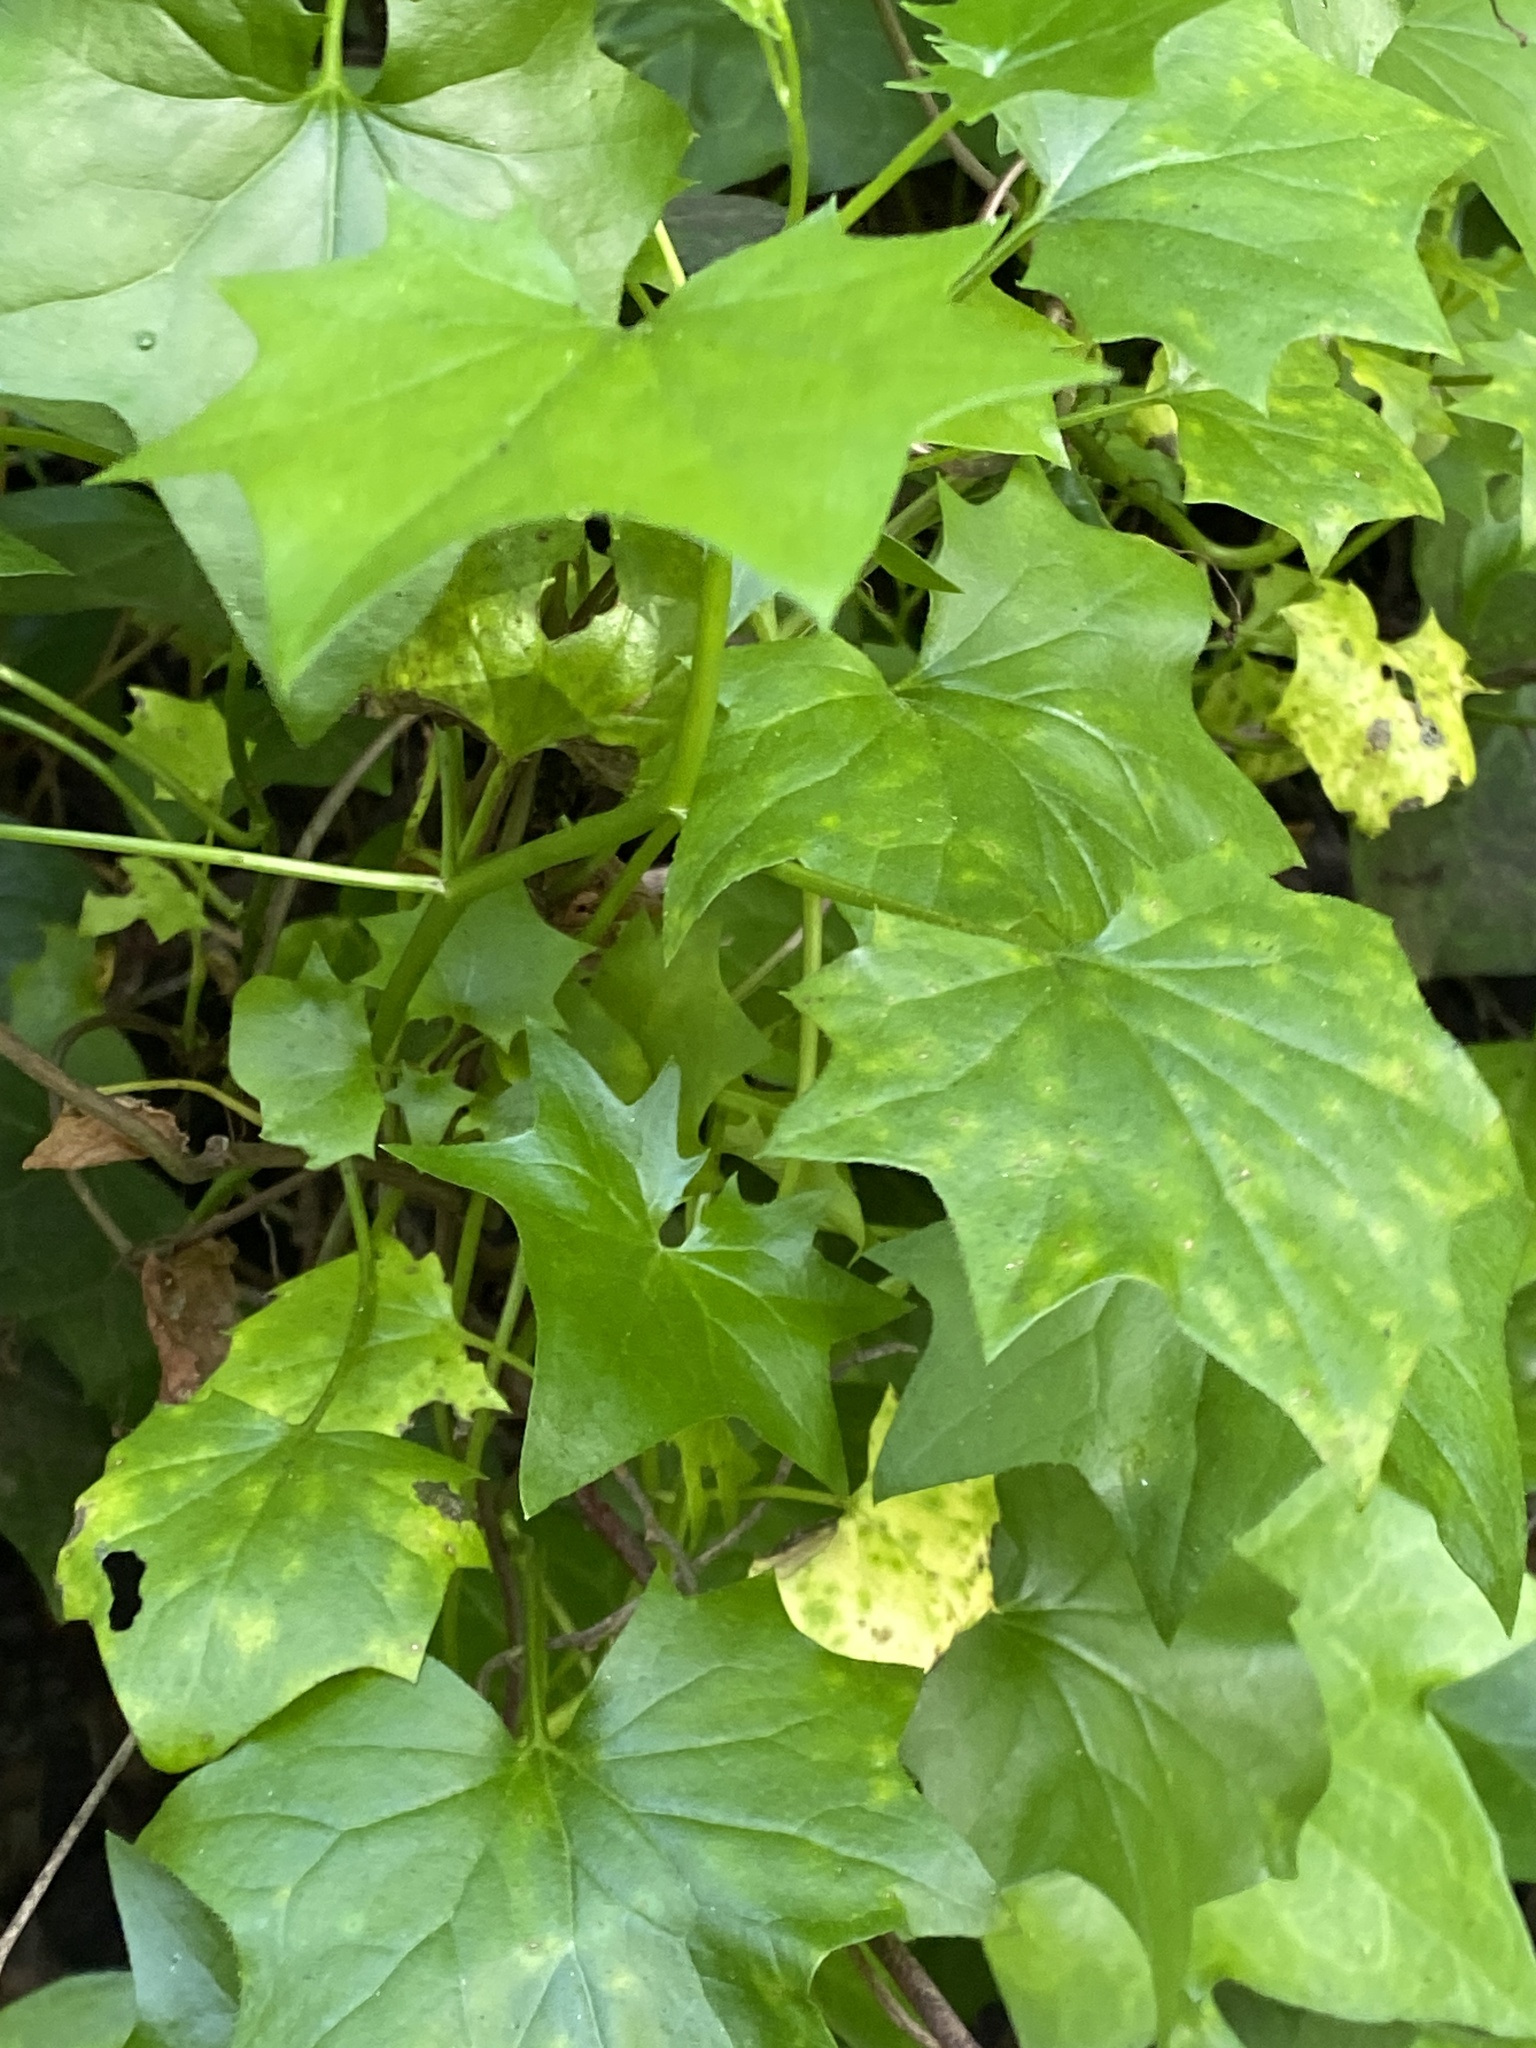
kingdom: Plantae
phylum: Tracheophyta
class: Magnoliopsida
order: Asterales
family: Asteraceae
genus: Delairea
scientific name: Delairea odorata
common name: Cape-ivy
